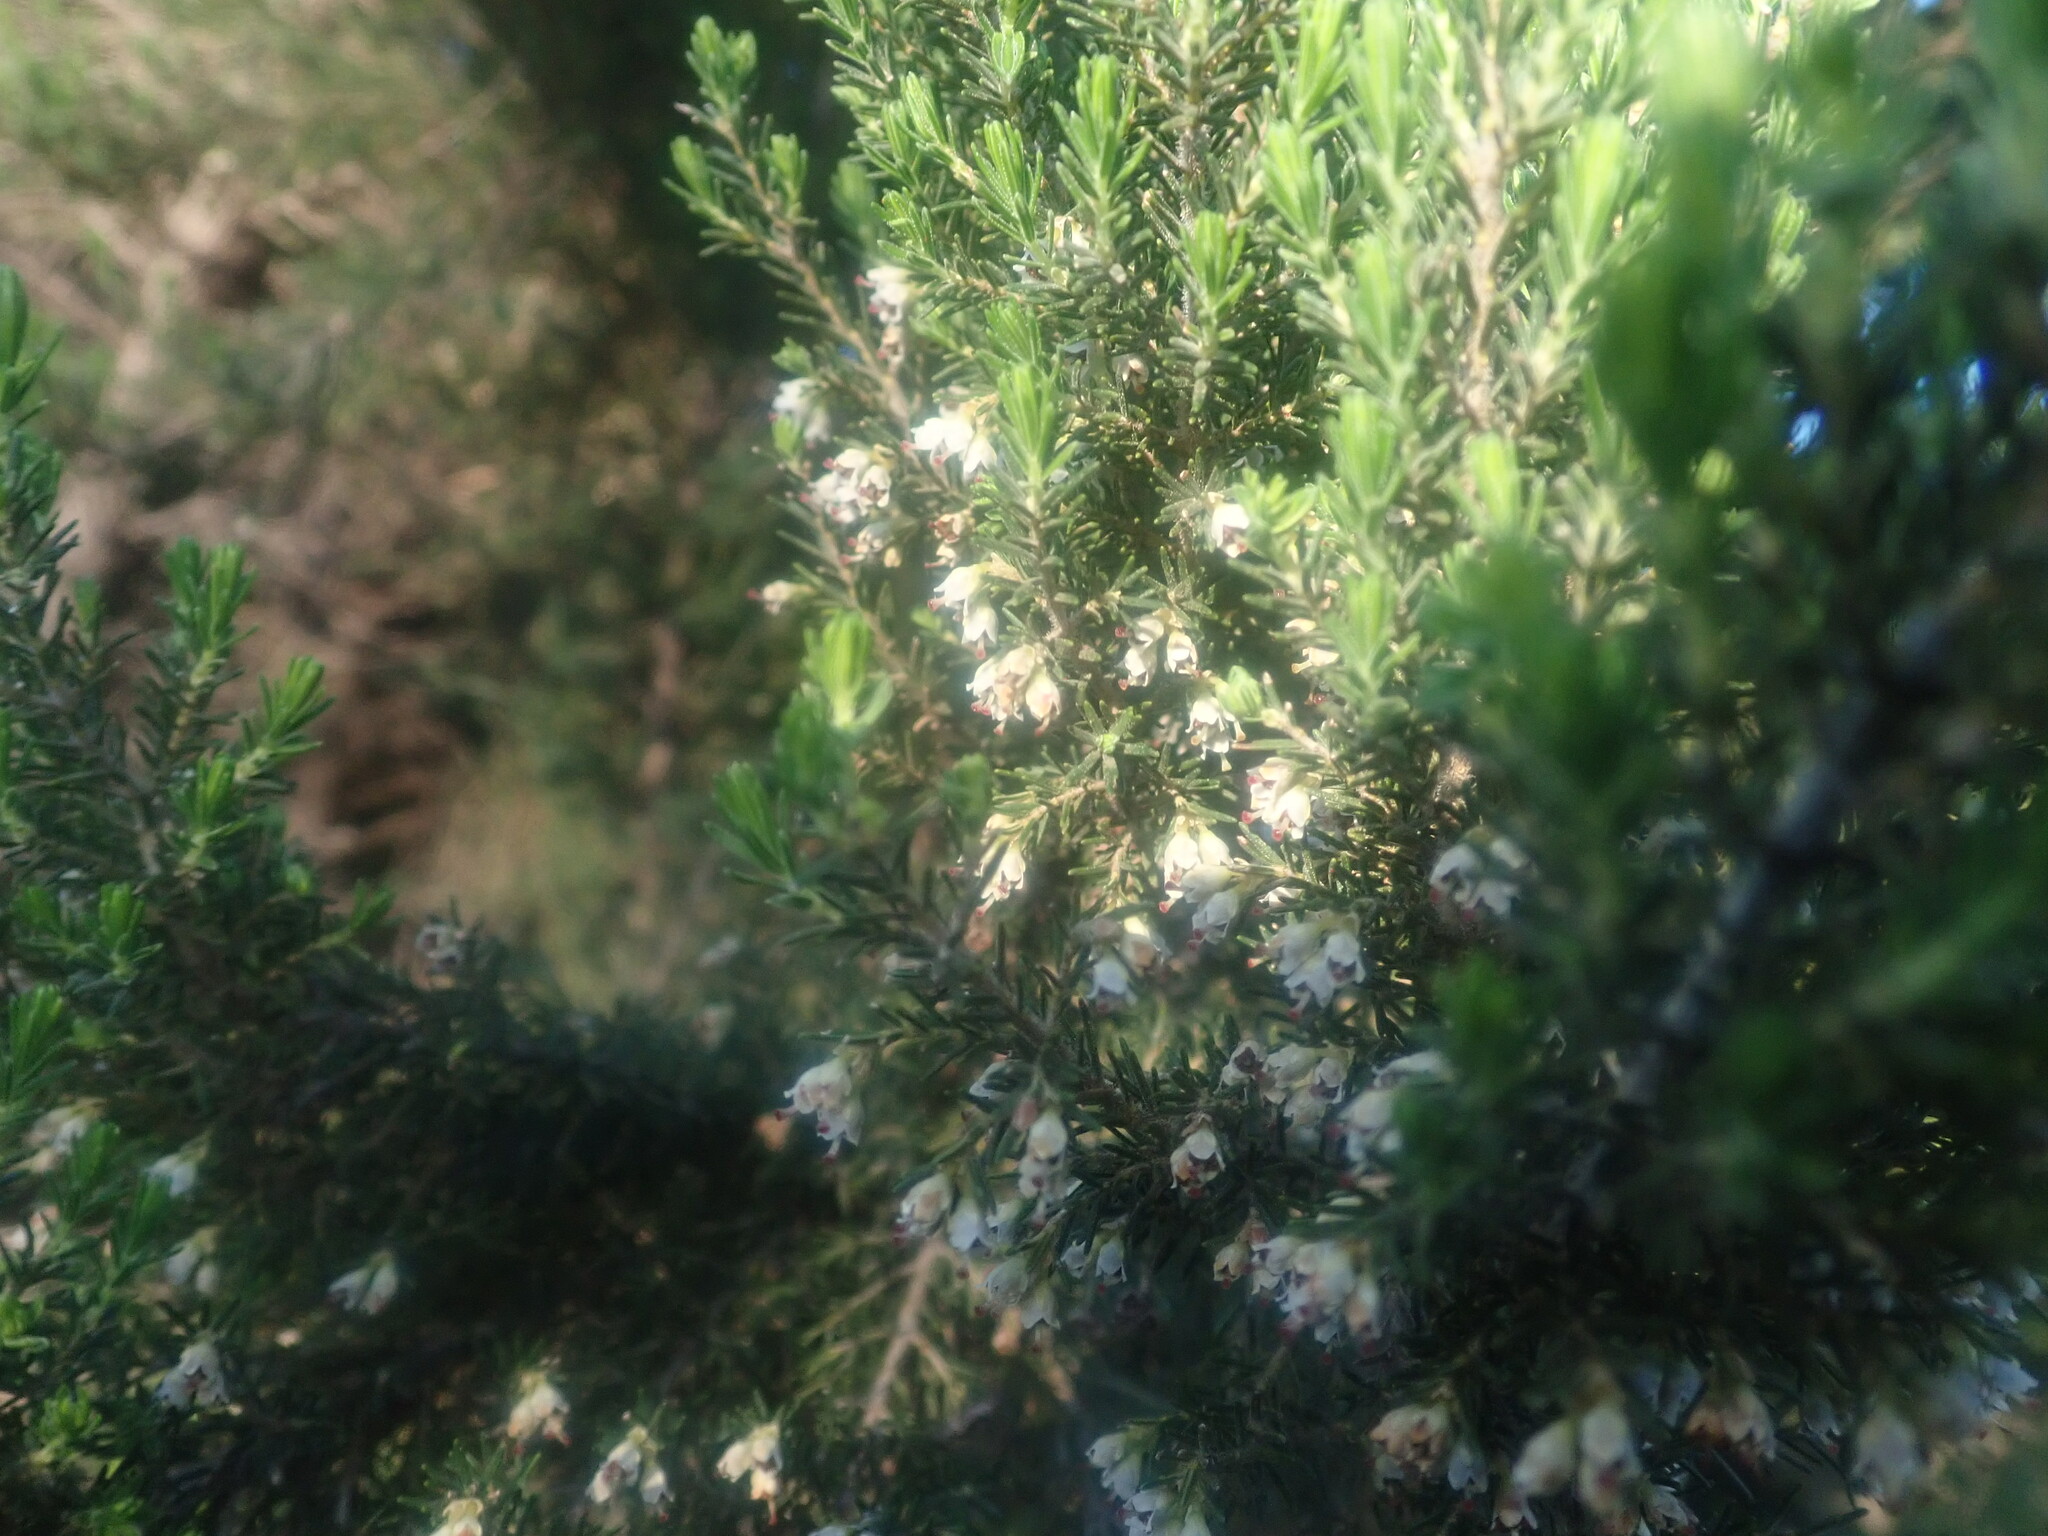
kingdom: Plantae
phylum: Tracheophyta
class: Magnoliopsida
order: Ericales
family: Ericaceae
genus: Erica
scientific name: Erica canariensis
